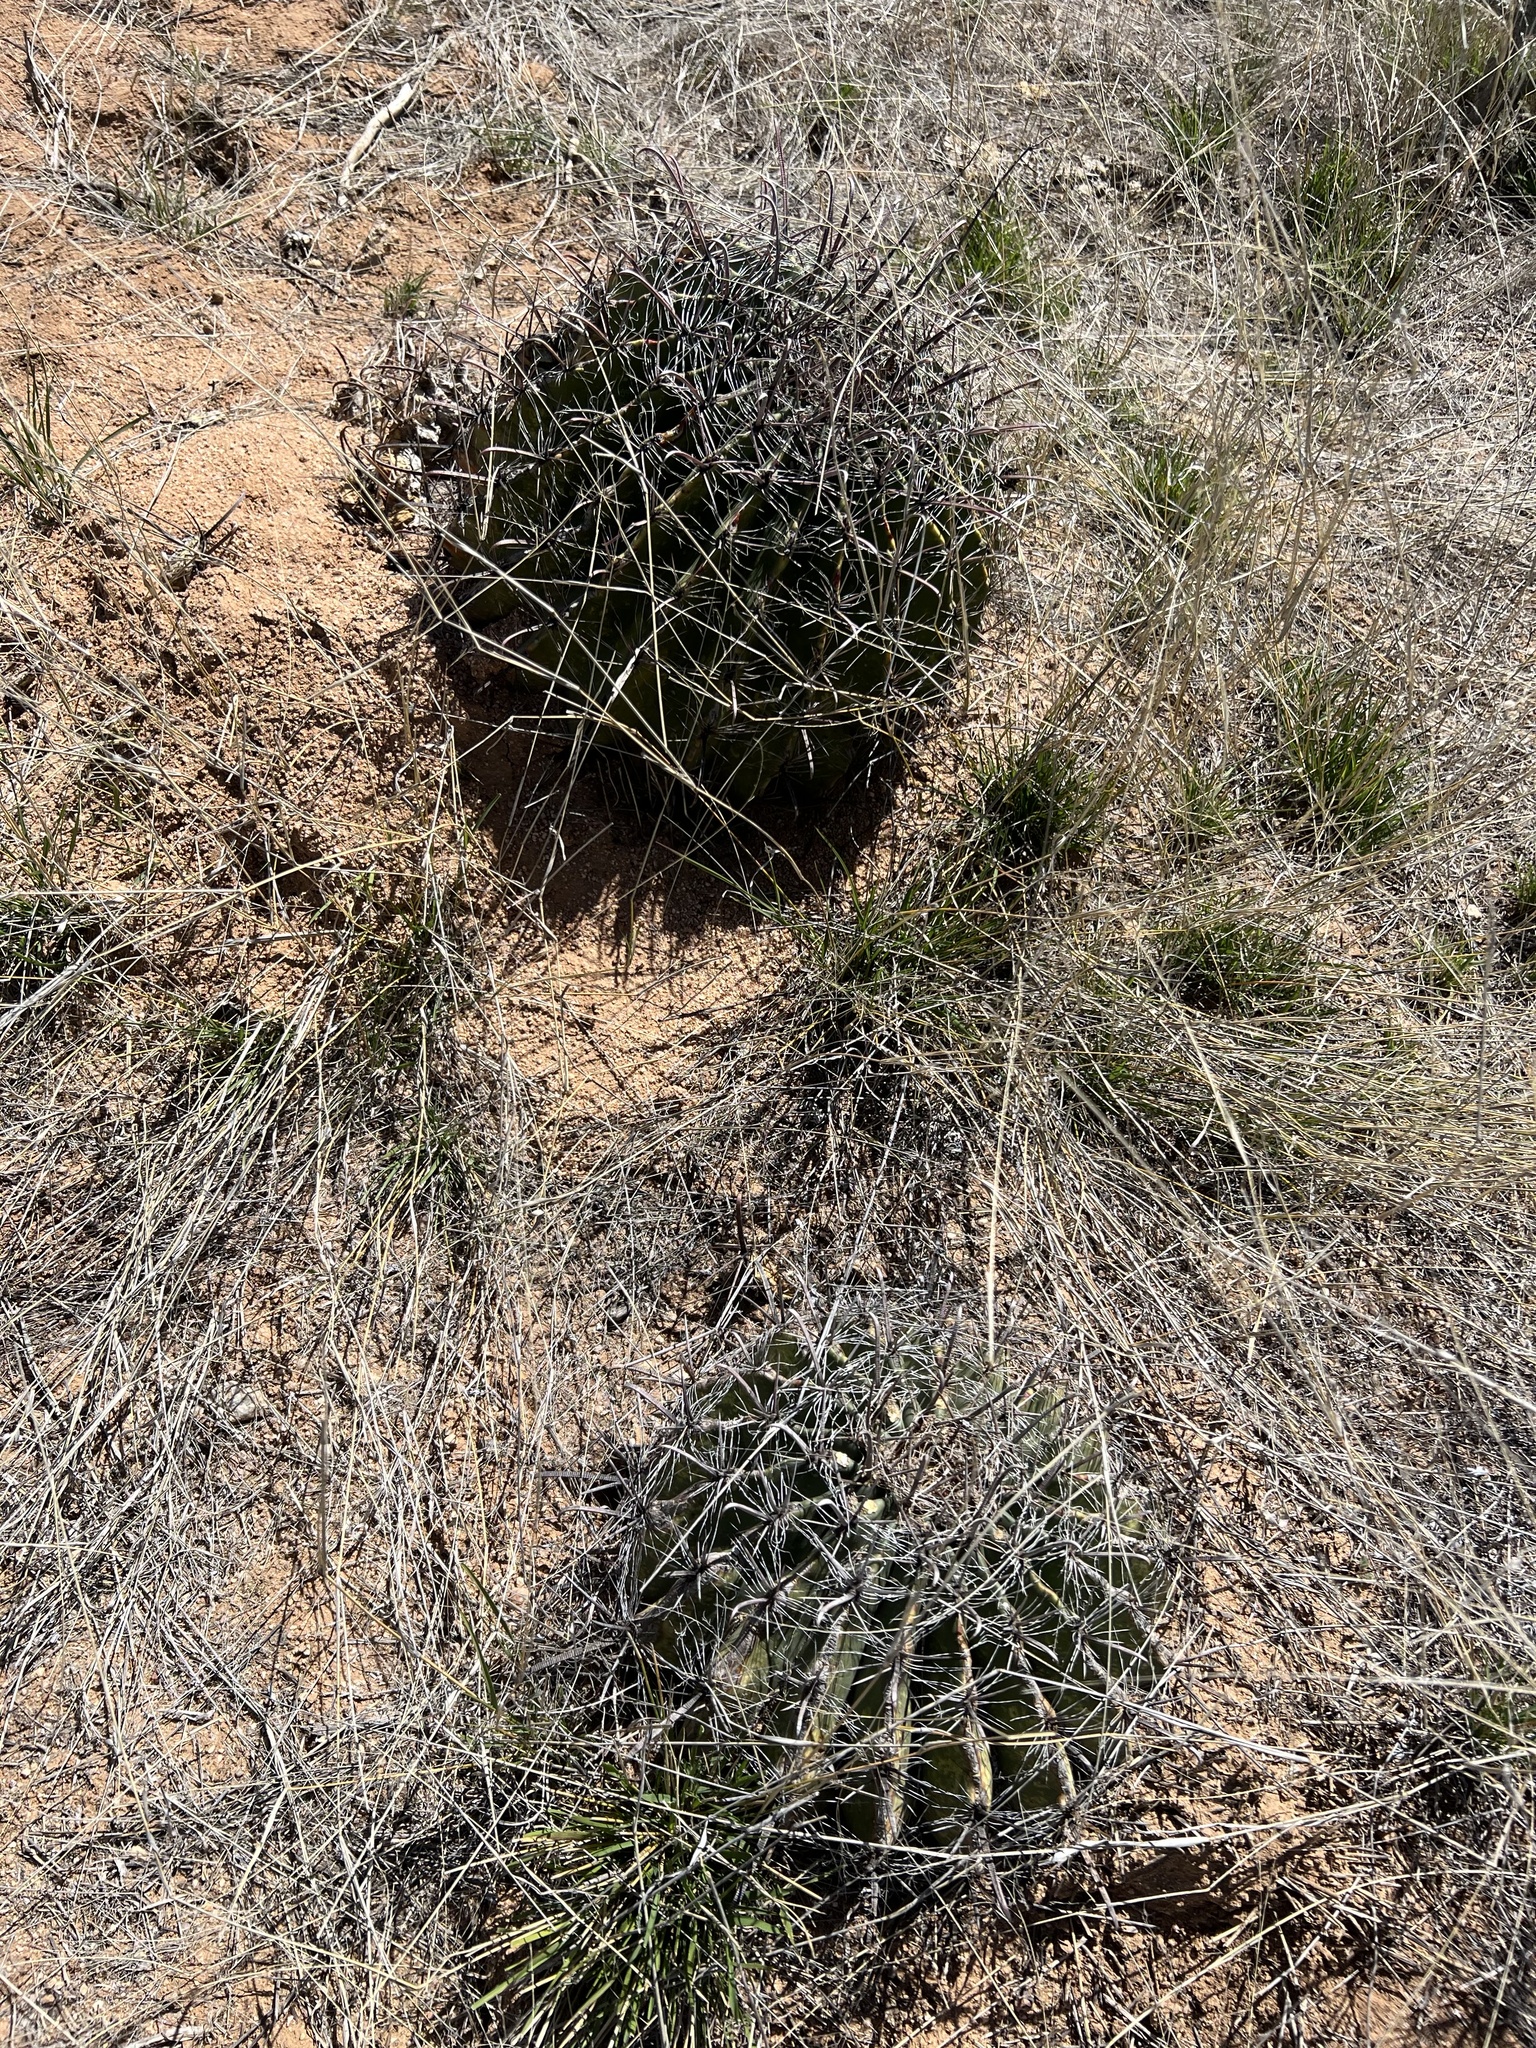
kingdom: Plantae
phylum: Tracheophyta
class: Magnoliopsida
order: Caryophyllales
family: Cactaceae
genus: Ferocactus
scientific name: Ferocactus wislizeni
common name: Candy barrel cactus
